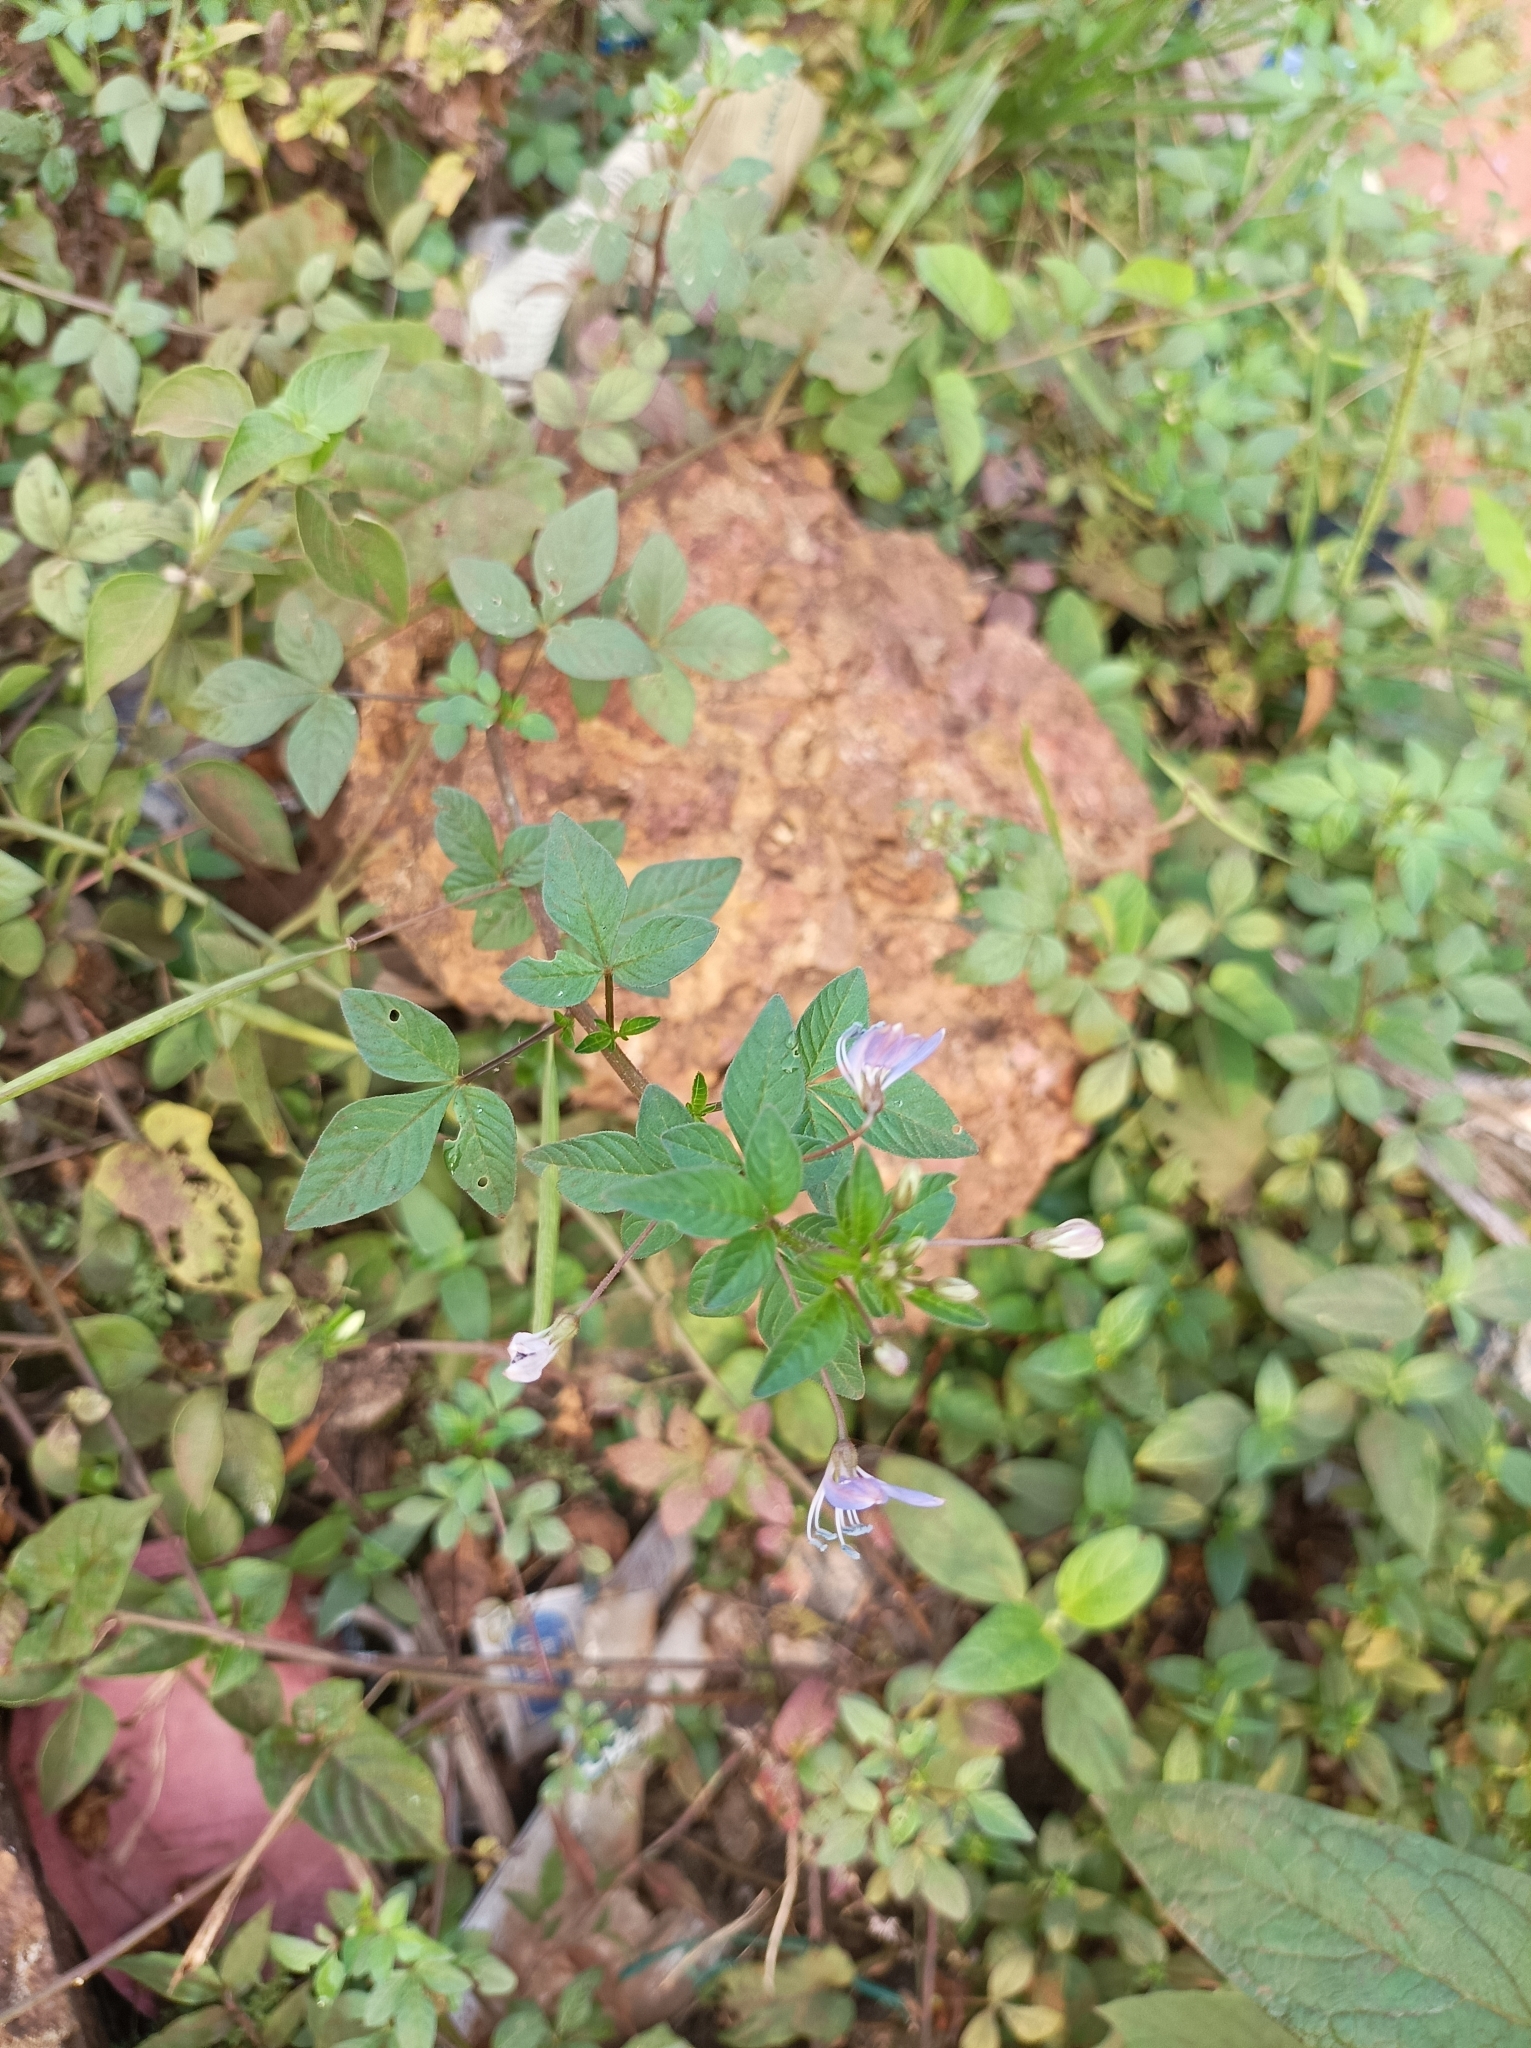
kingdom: Plantae
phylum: Tracheophyta
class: Magnoliopsida
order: Brassicales
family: Cleomaceae
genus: Sieruela
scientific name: Sieruela rutidosperma
